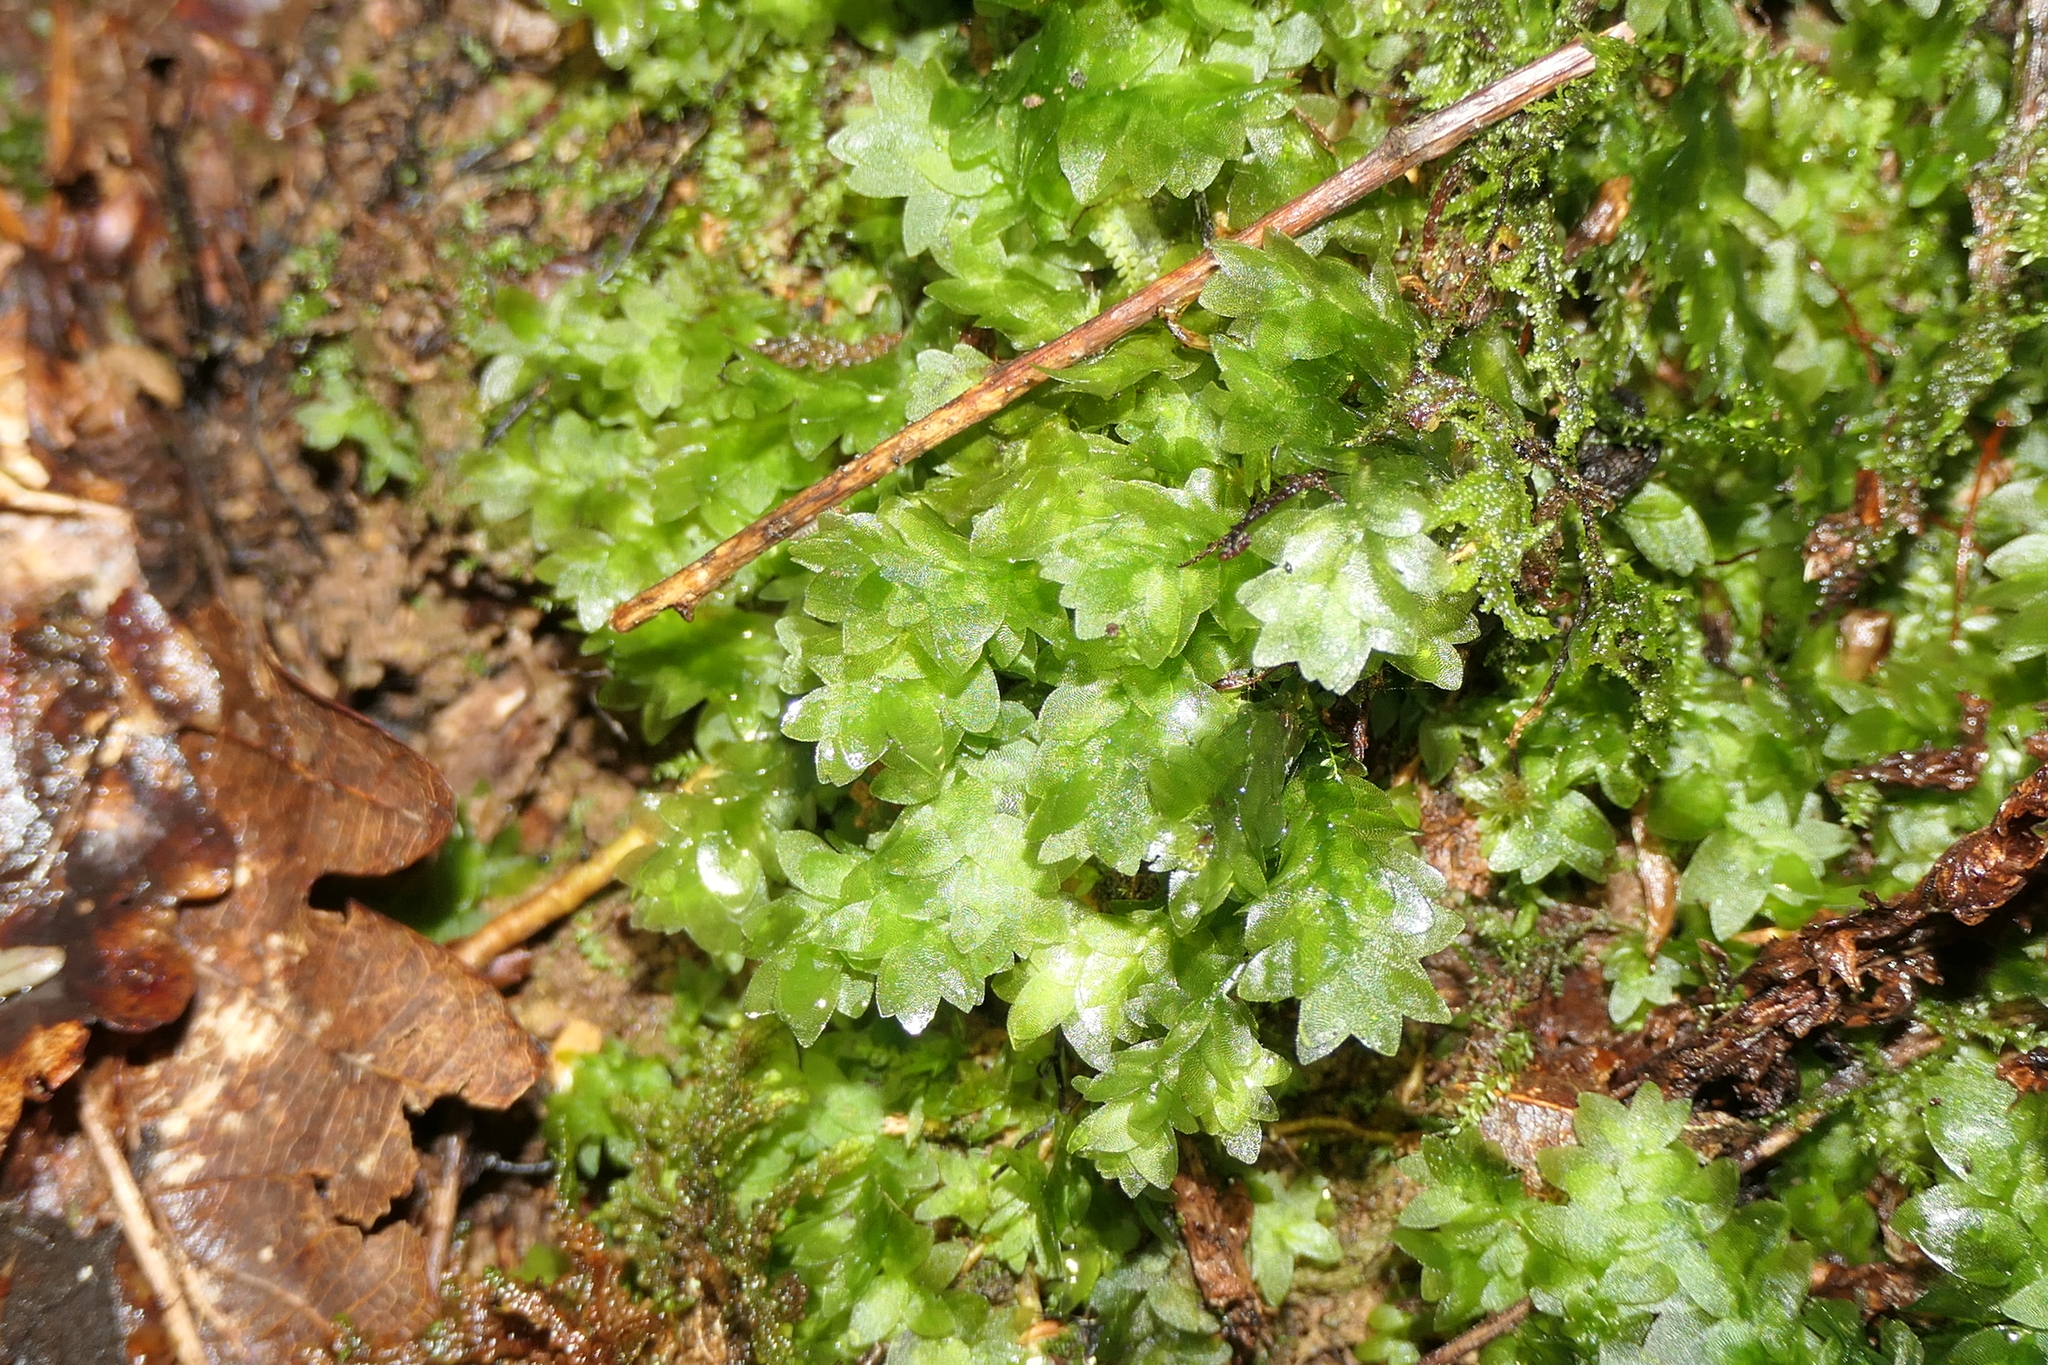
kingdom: Plantae
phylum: Bryophyta
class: Bryopsida
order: Hookeriales
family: Hookeriaceae
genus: Hookeria
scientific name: Hookeria lucens
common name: Shining hookeria
